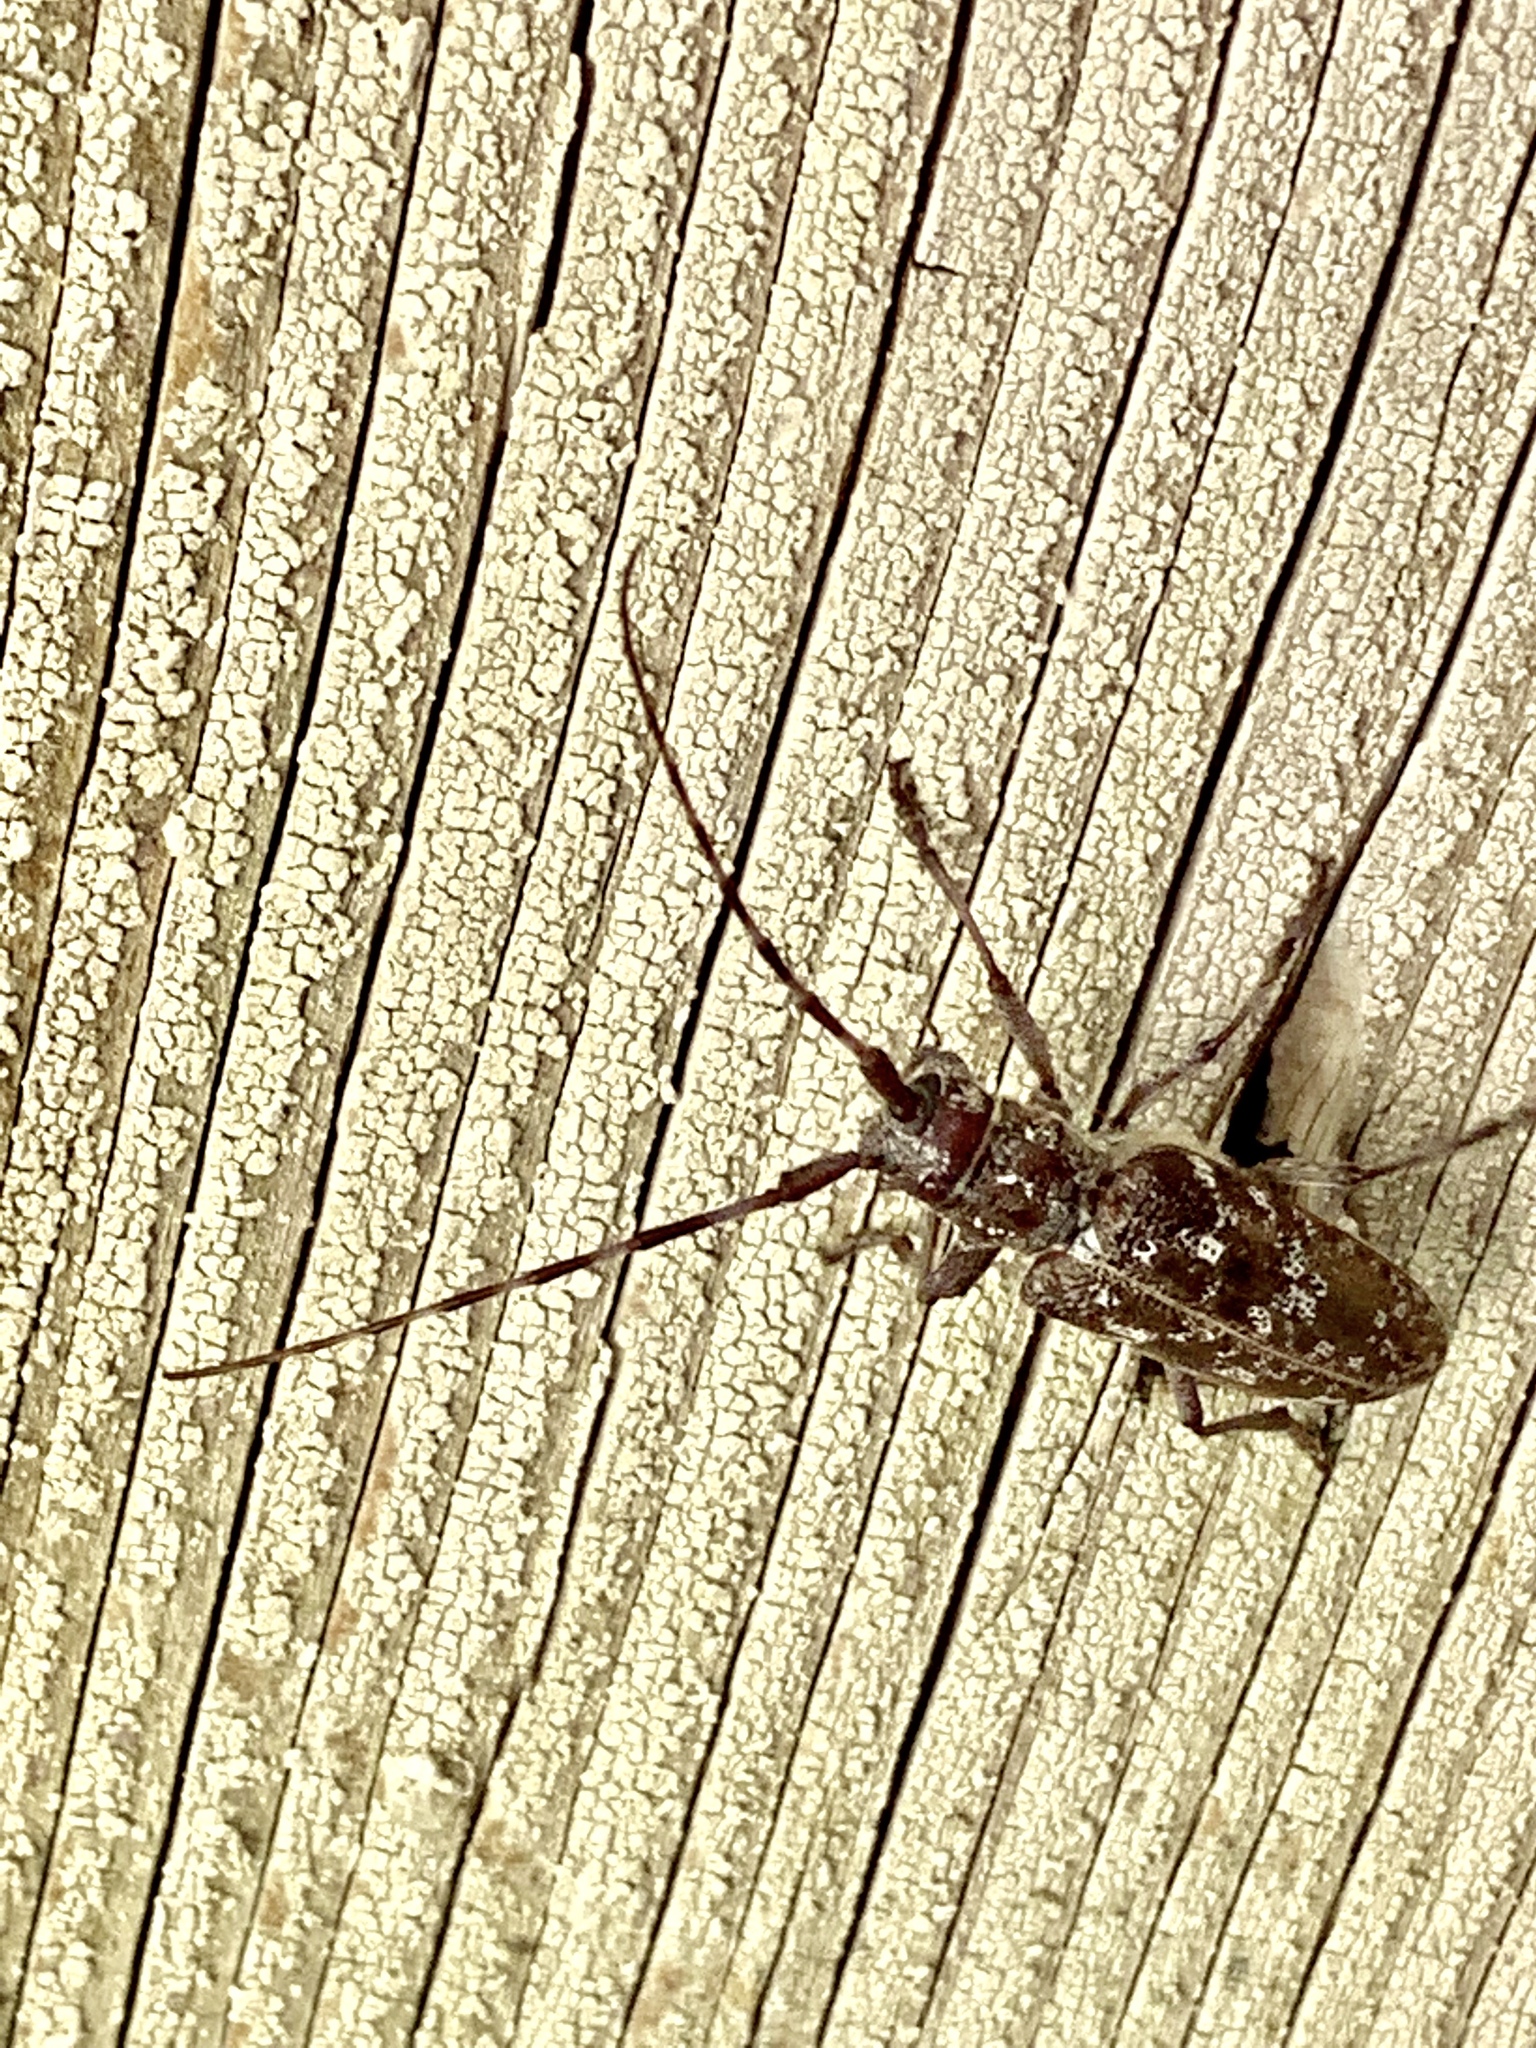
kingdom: Animalia
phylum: Arthropoda
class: Insecta
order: Coleoptera
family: Cerambycidae
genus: Monochamus
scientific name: Monochamus obtusus
